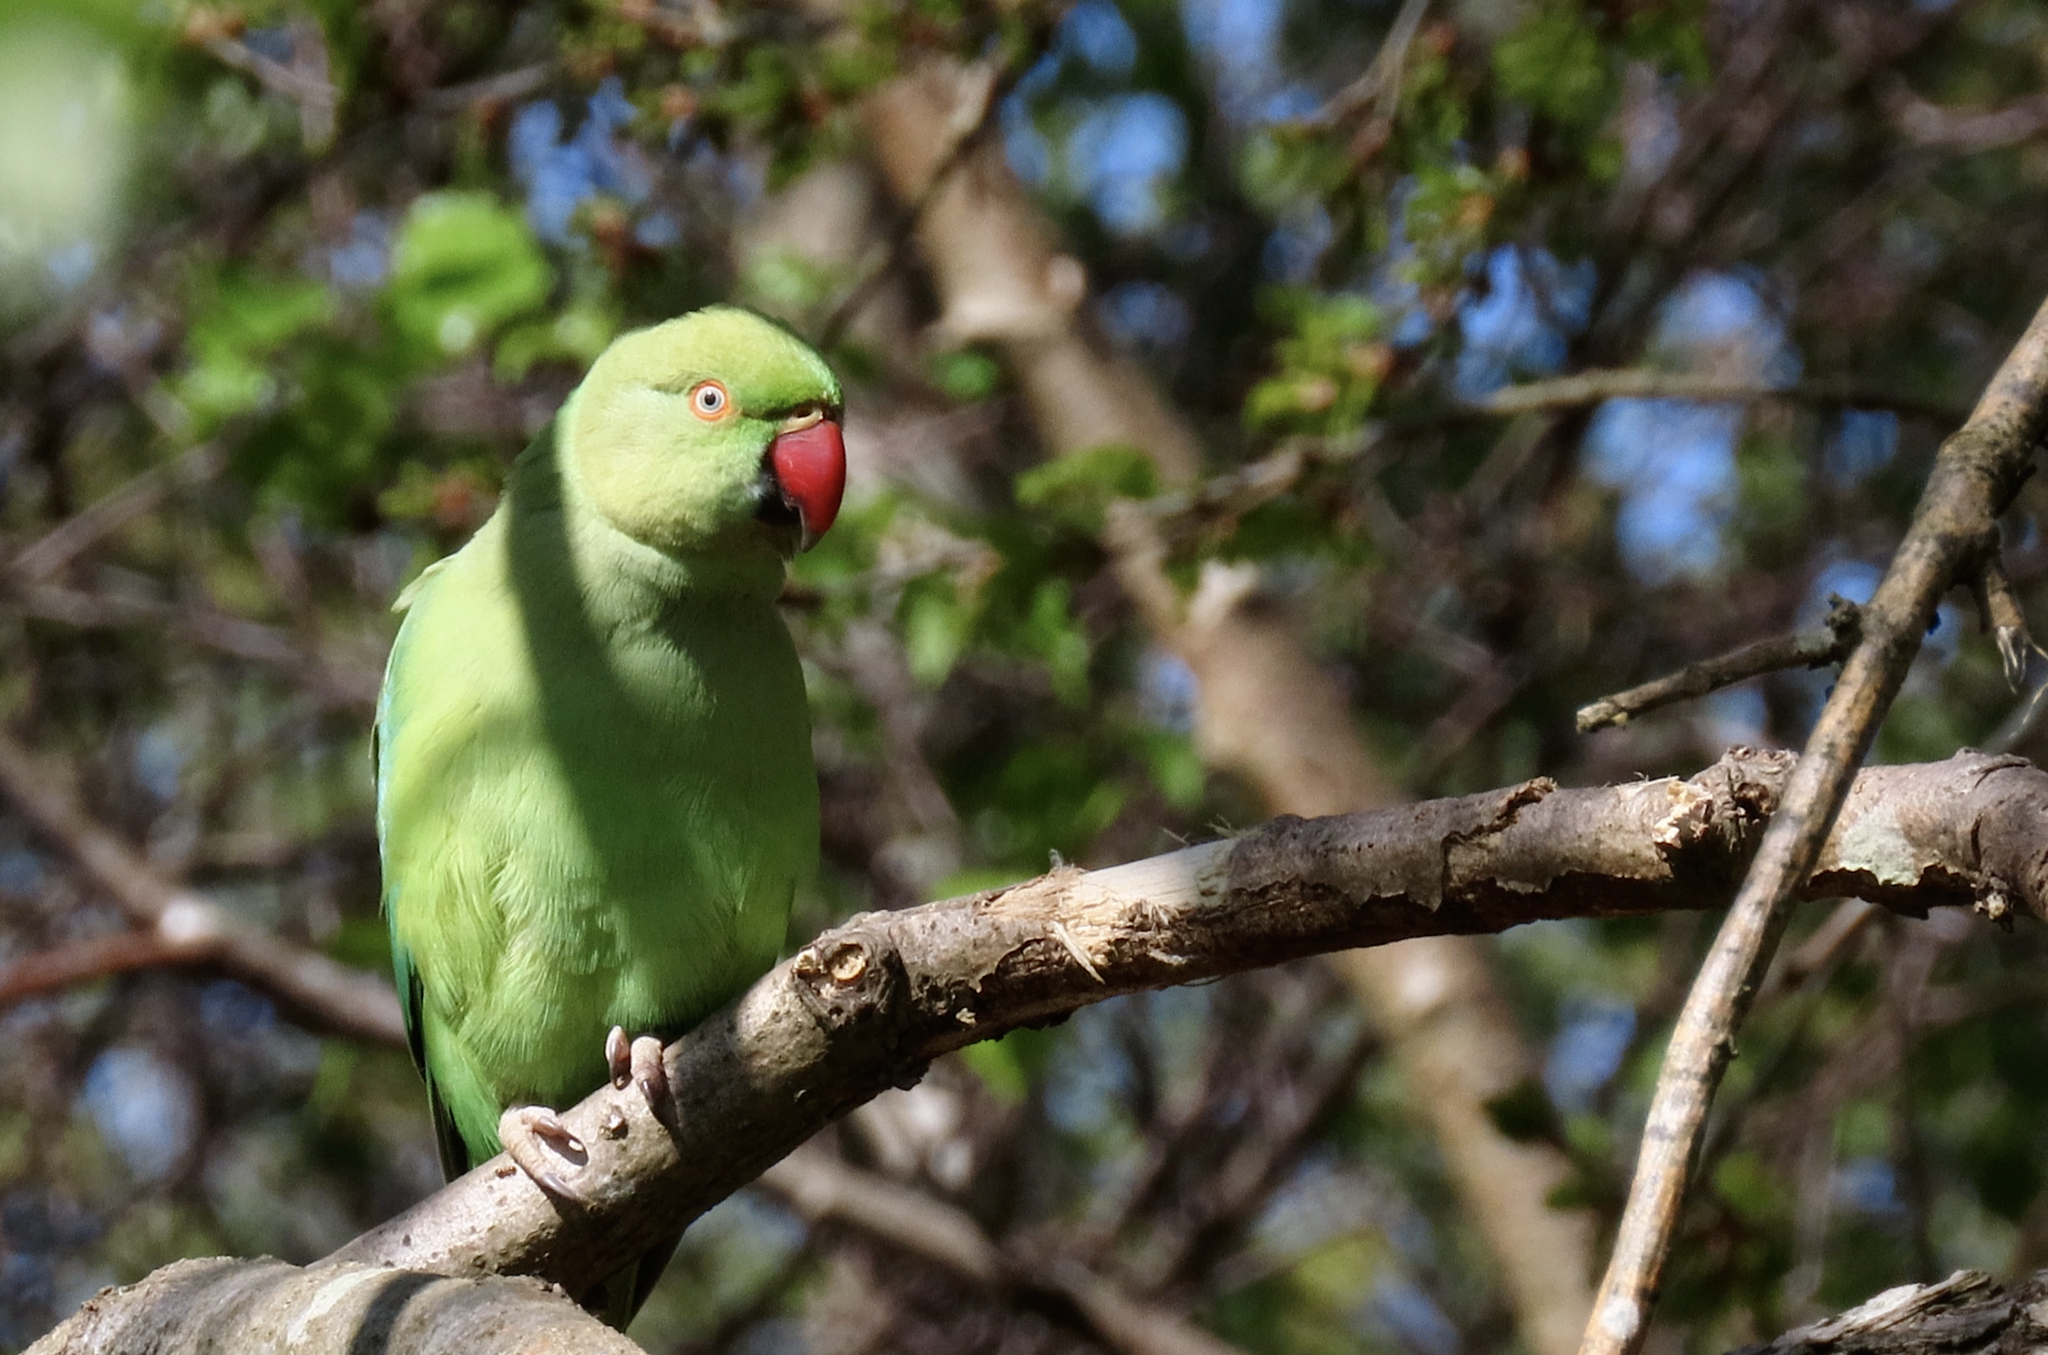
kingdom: Animalia
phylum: Chordata
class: Aves
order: Psittaciformes
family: Psittacidae
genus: Psittacula
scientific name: Psittacula krameri
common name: Rose-ringed parakeet
